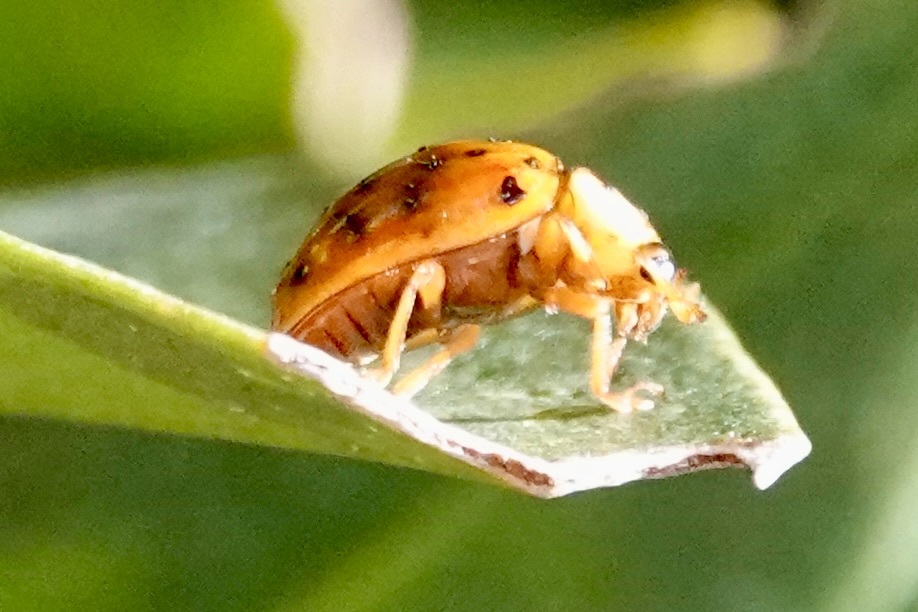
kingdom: Animalia
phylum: Arthropoda
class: Insecta
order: Coleoptera
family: Coccinellidae
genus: Harmonia
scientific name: Harmonia axyridis
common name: Harlequin ladybird
